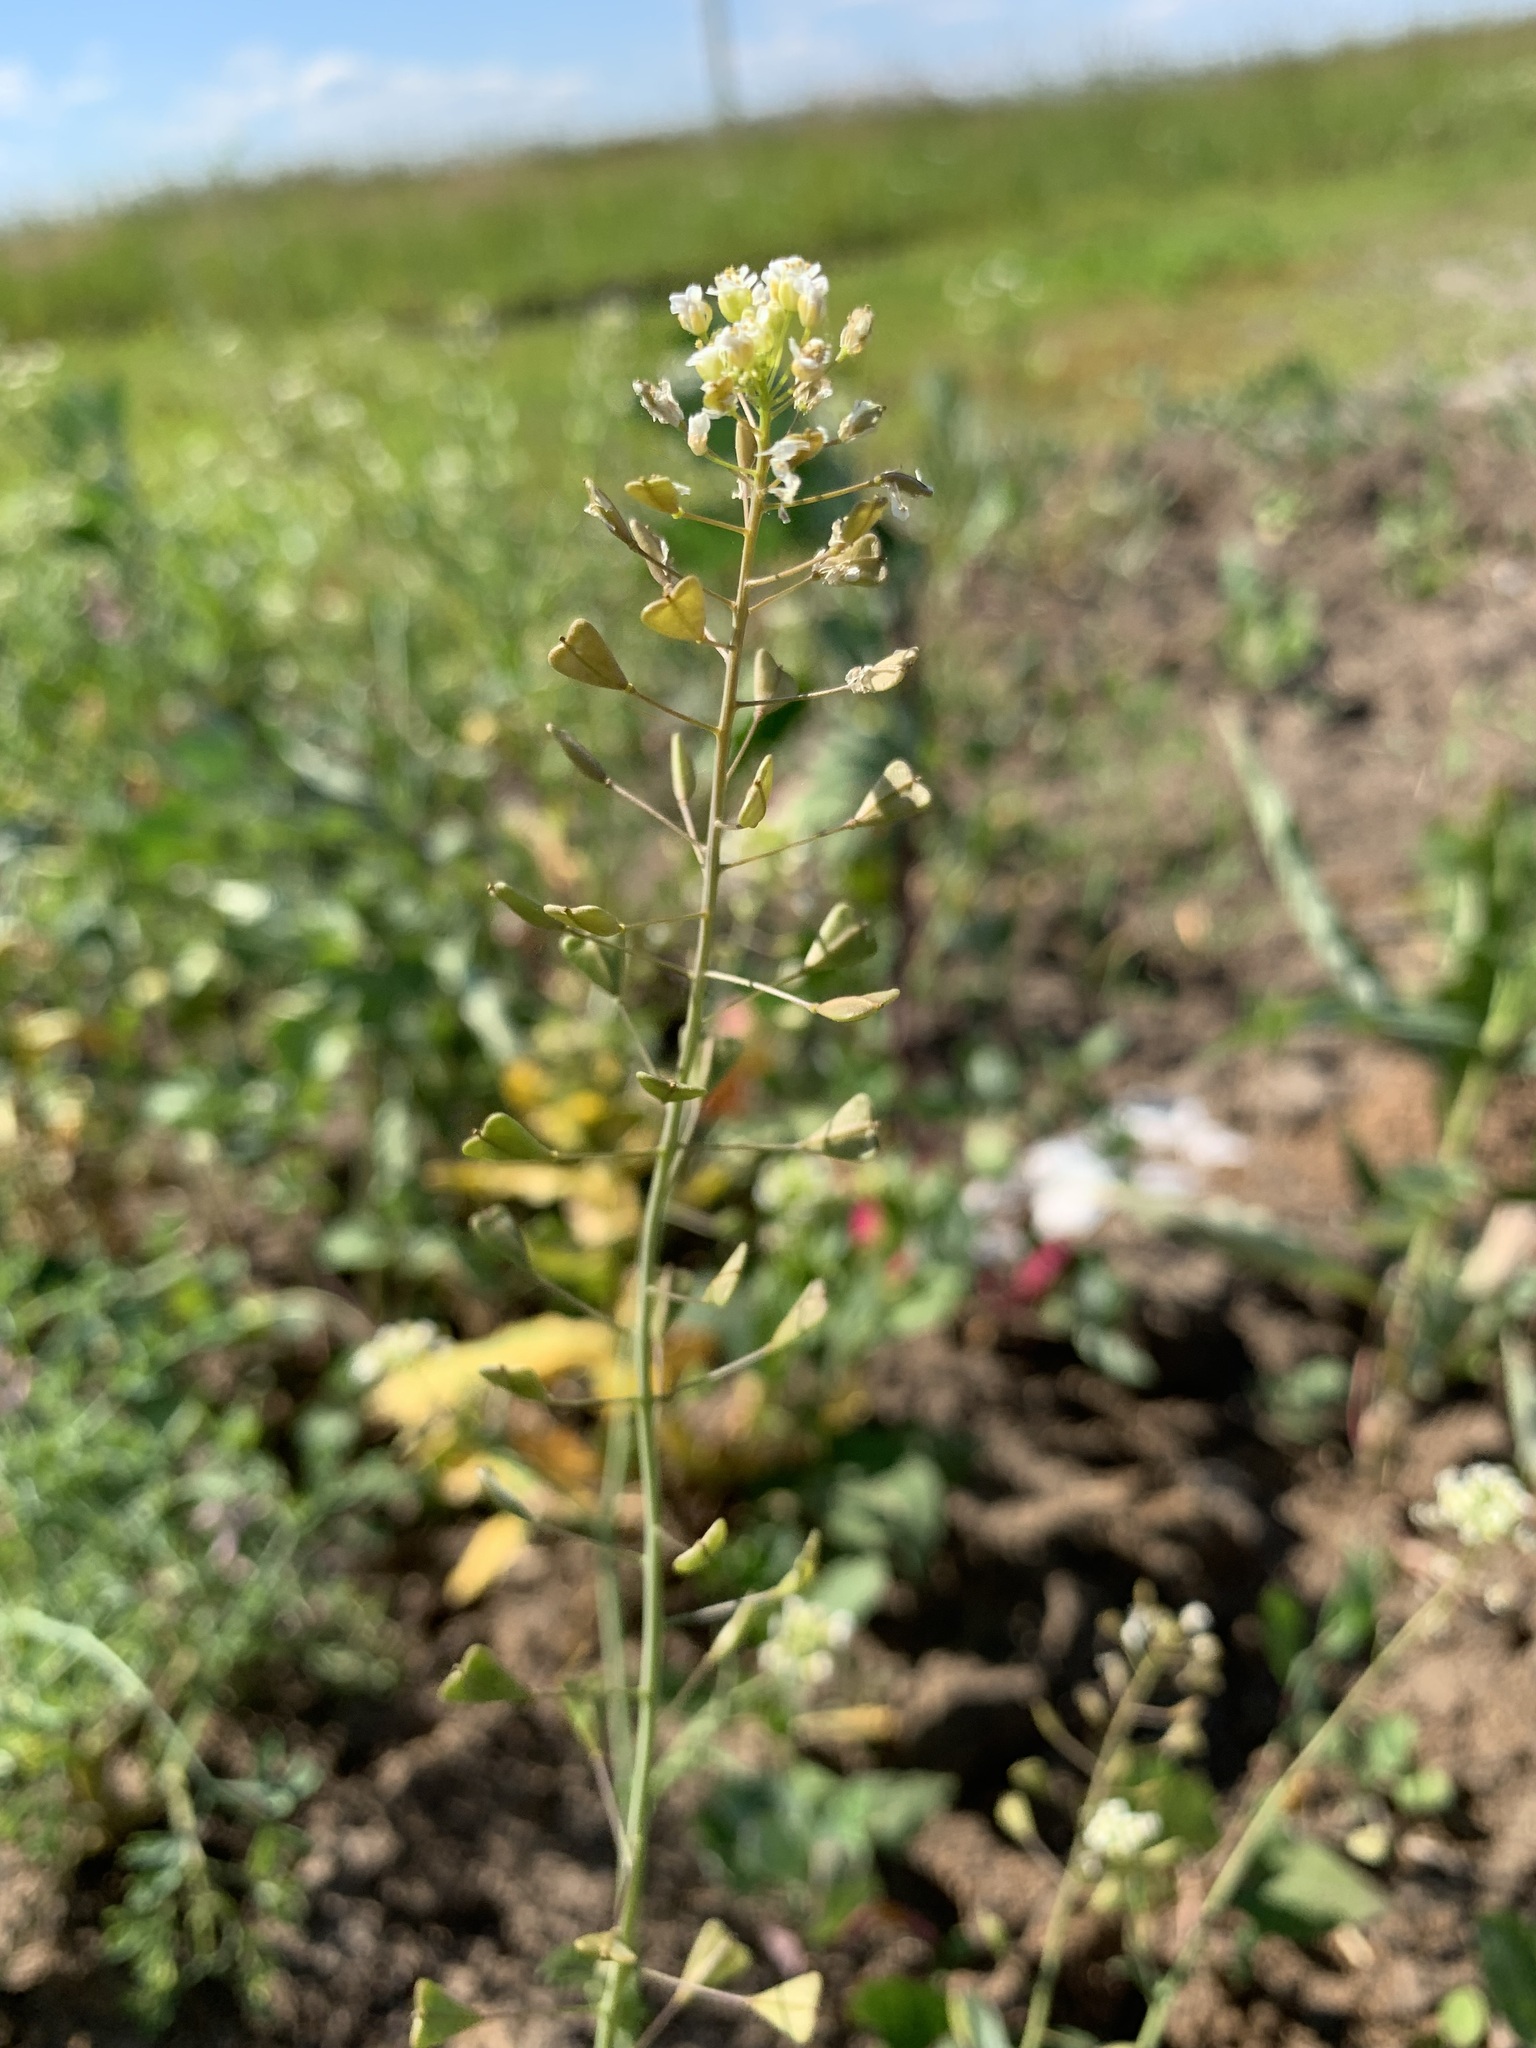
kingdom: Plantae
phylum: Tracheophyta
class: Magnoliopsida
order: Brassicales
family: Brassicaceae
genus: Capsella
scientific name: Capsella bursa-pastoris
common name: Shepherd's purse
